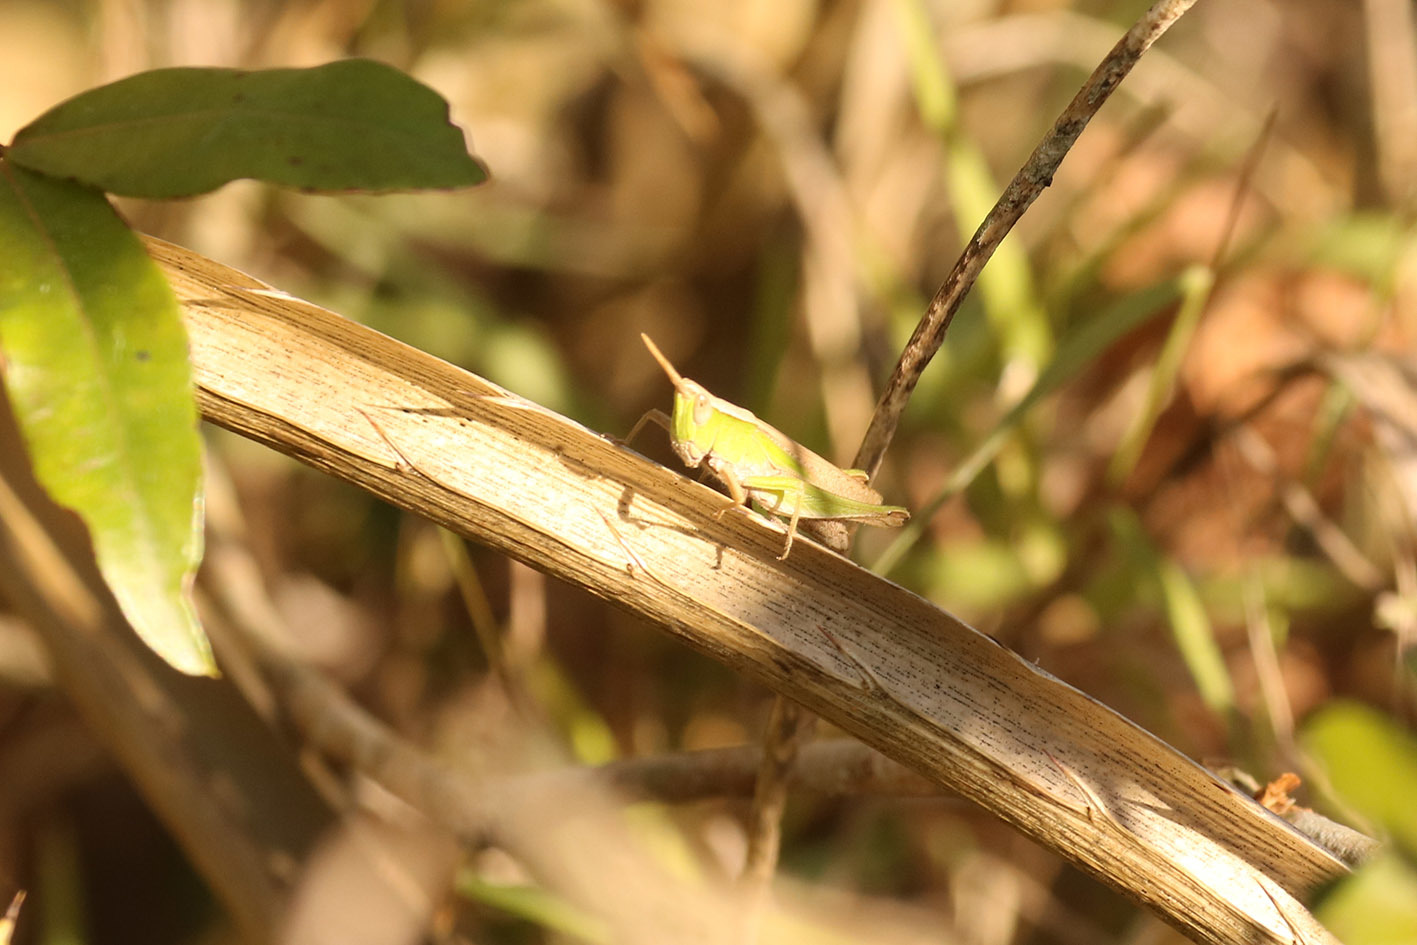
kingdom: Animalia
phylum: Arthropoda
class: Insecta
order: Orthoptera
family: Acrididae
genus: Laplatacris
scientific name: Laplatacris dispar
